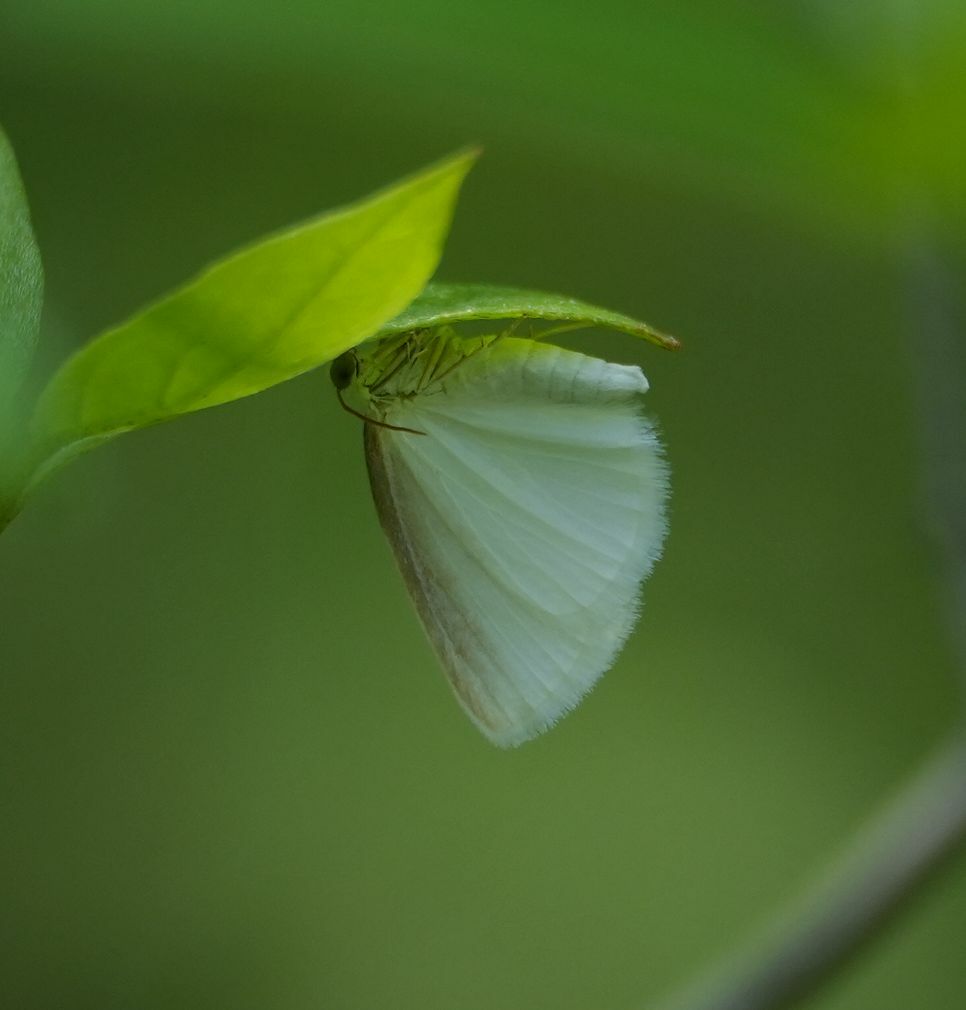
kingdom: Animalia
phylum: Arthropoda
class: Insecta
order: Lepidoptera
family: Geometridae
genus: Lomographa
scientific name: Lomographa vestaliata
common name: White spring moth
